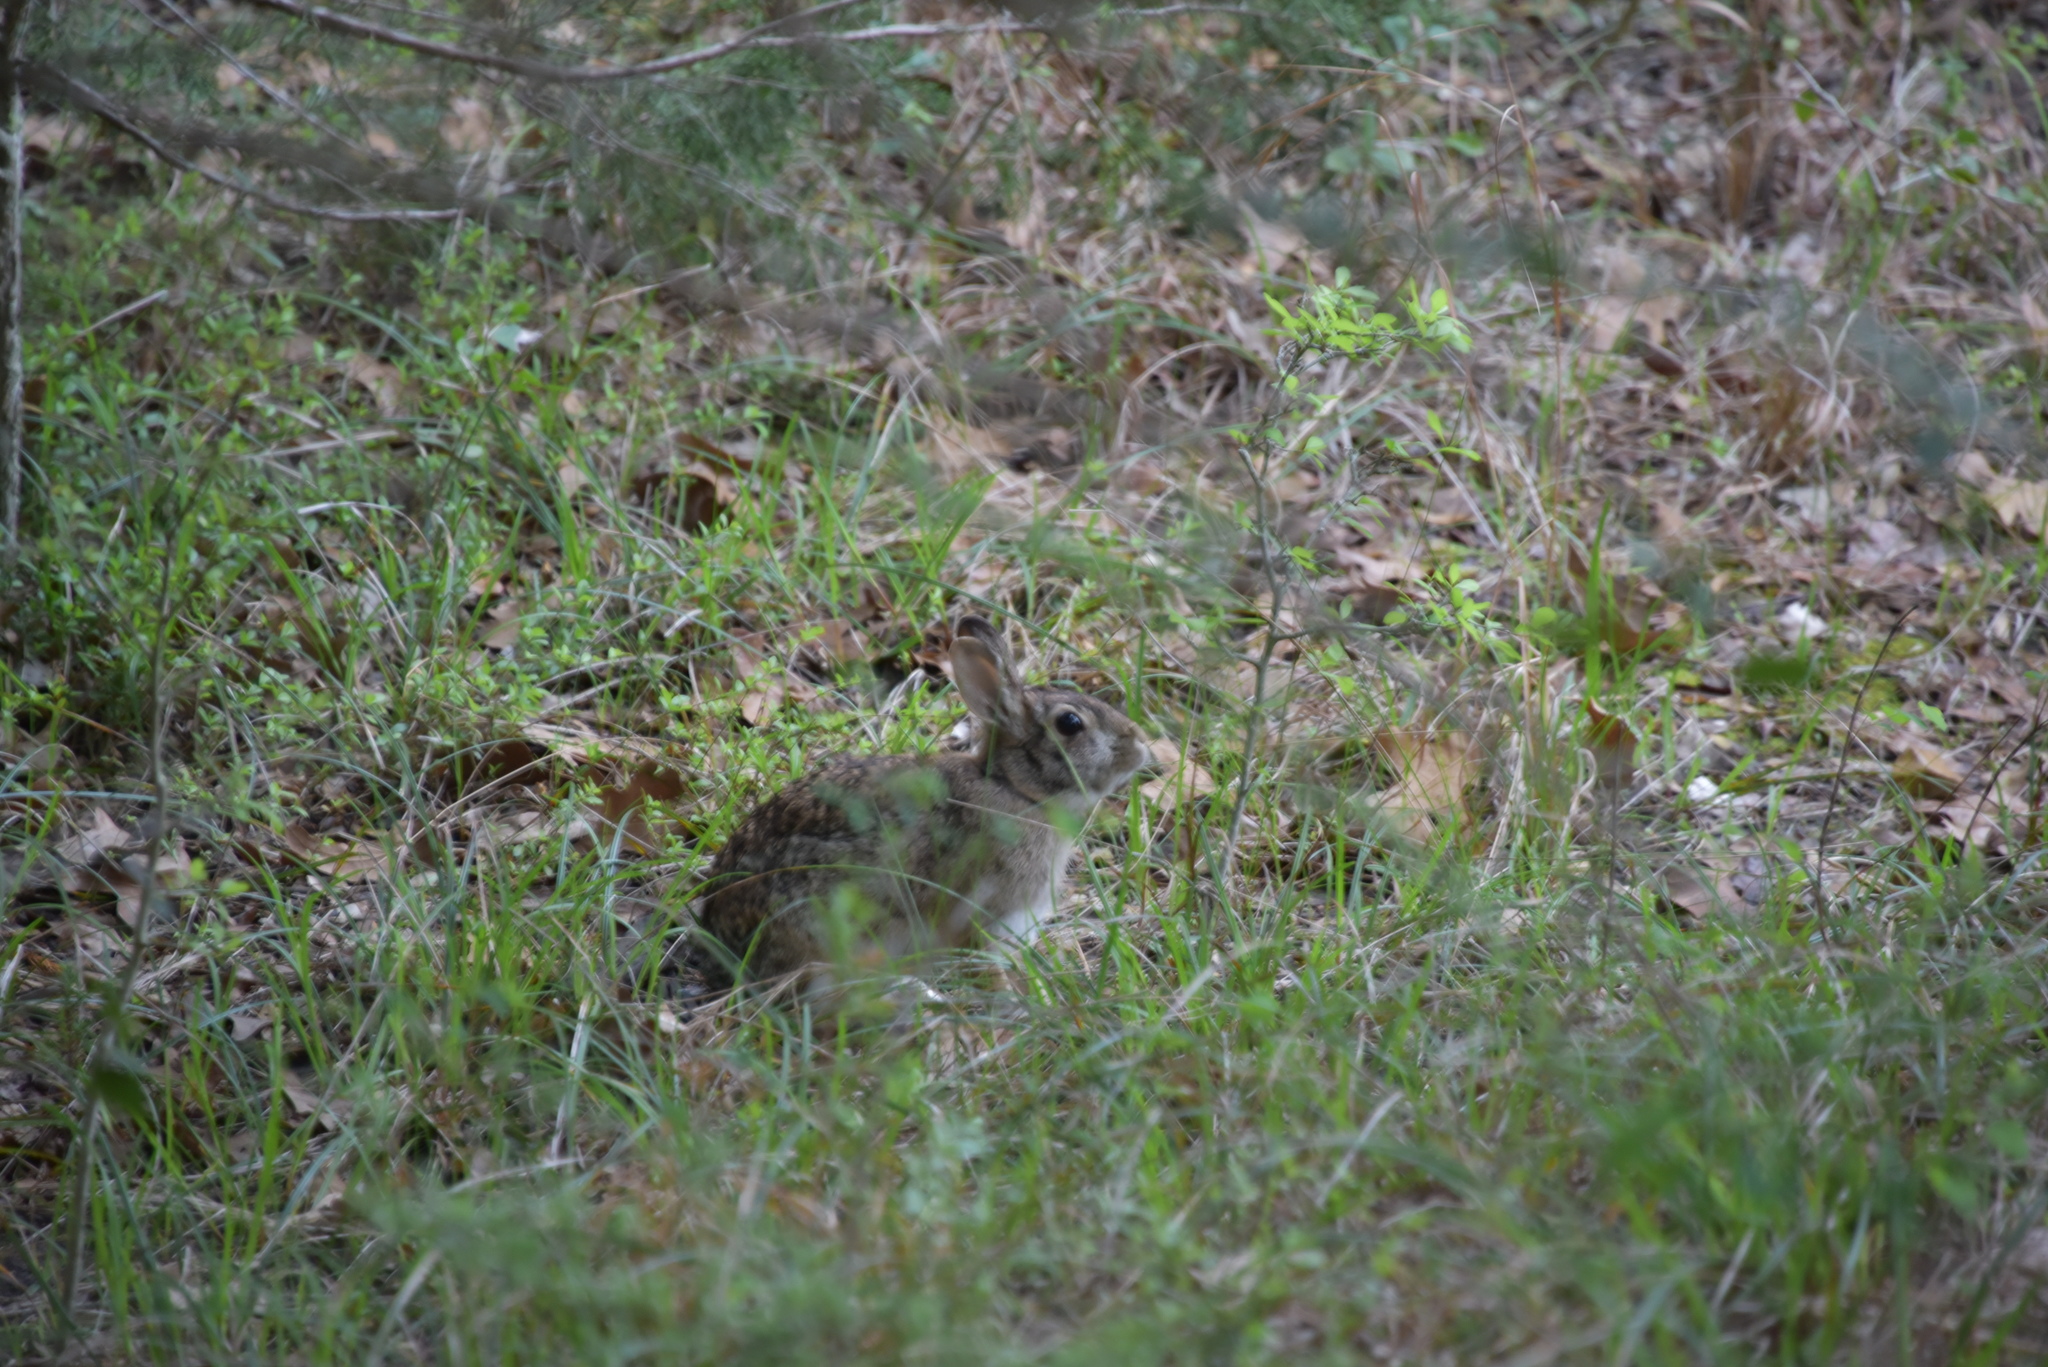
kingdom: Animalia
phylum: Chordata
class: Mammalia
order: Lagomorpha
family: Leporidae
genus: Sylvilagus
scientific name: Sylvilagus floridanus
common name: Eastern cottontail
